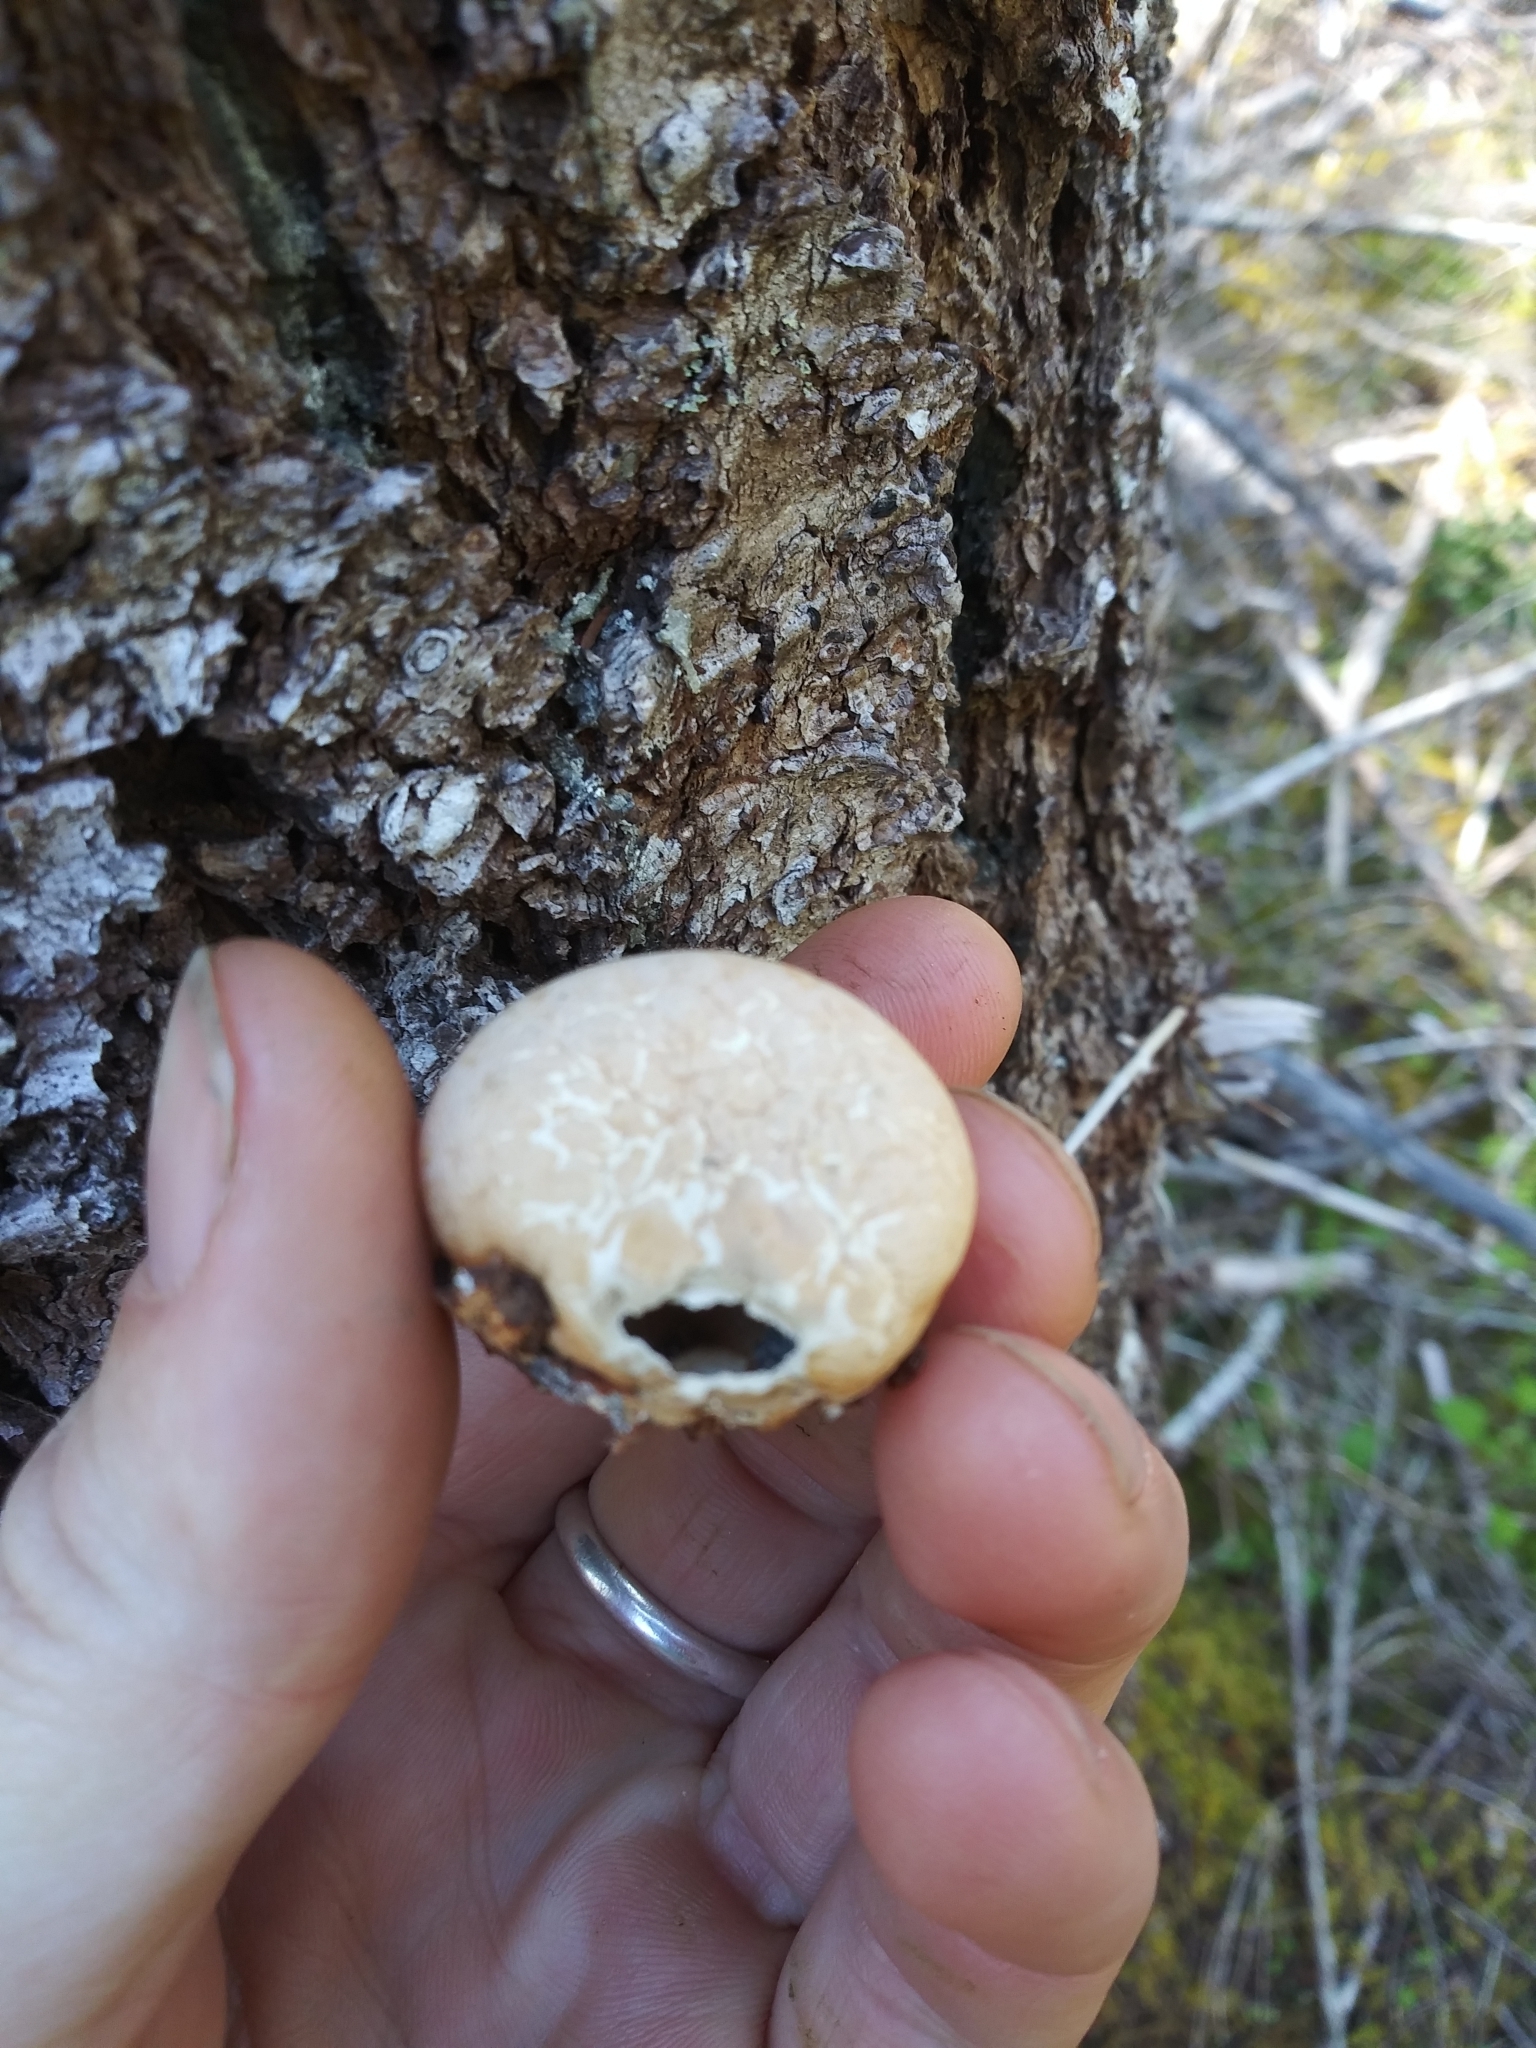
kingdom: Fungi
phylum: Basidiomycota
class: Agaricomycetes
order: Polyporales
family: Polyporaceae
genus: Cryptoporus
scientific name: Cryptoporus volvatus
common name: Veiled polypore
